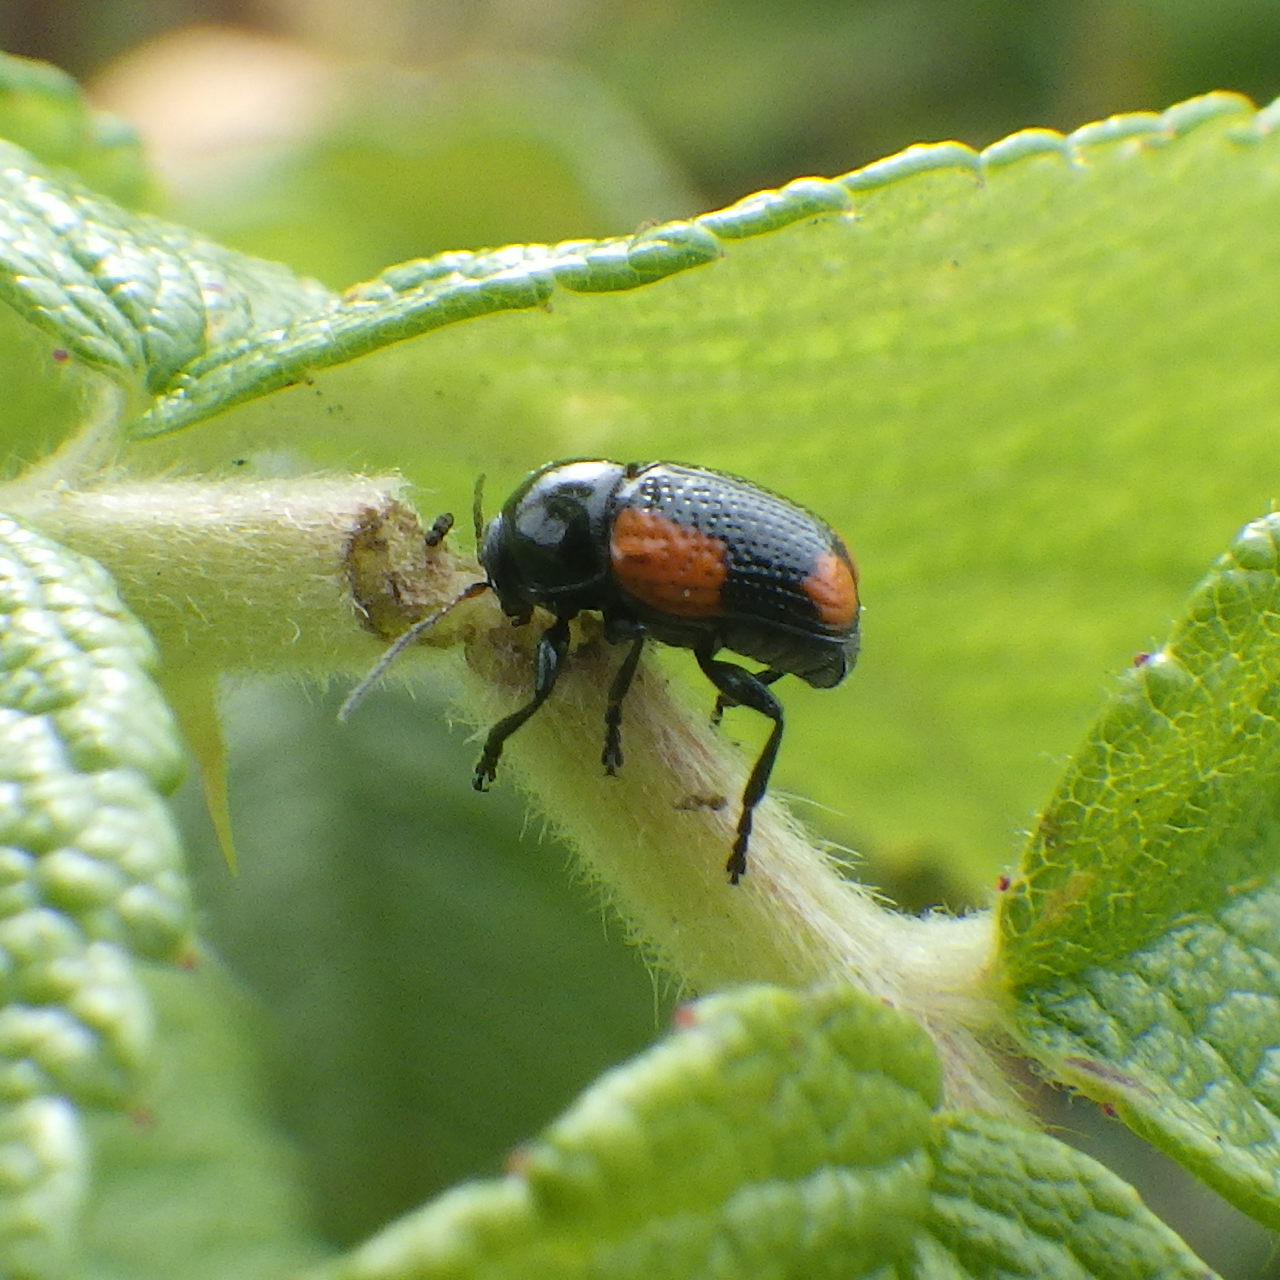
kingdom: Animalia
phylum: Arthropoda
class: Insecta
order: Coleoptera
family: Chrysomelidae
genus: Cryptocephalus
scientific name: Cryptocephalus notatus
